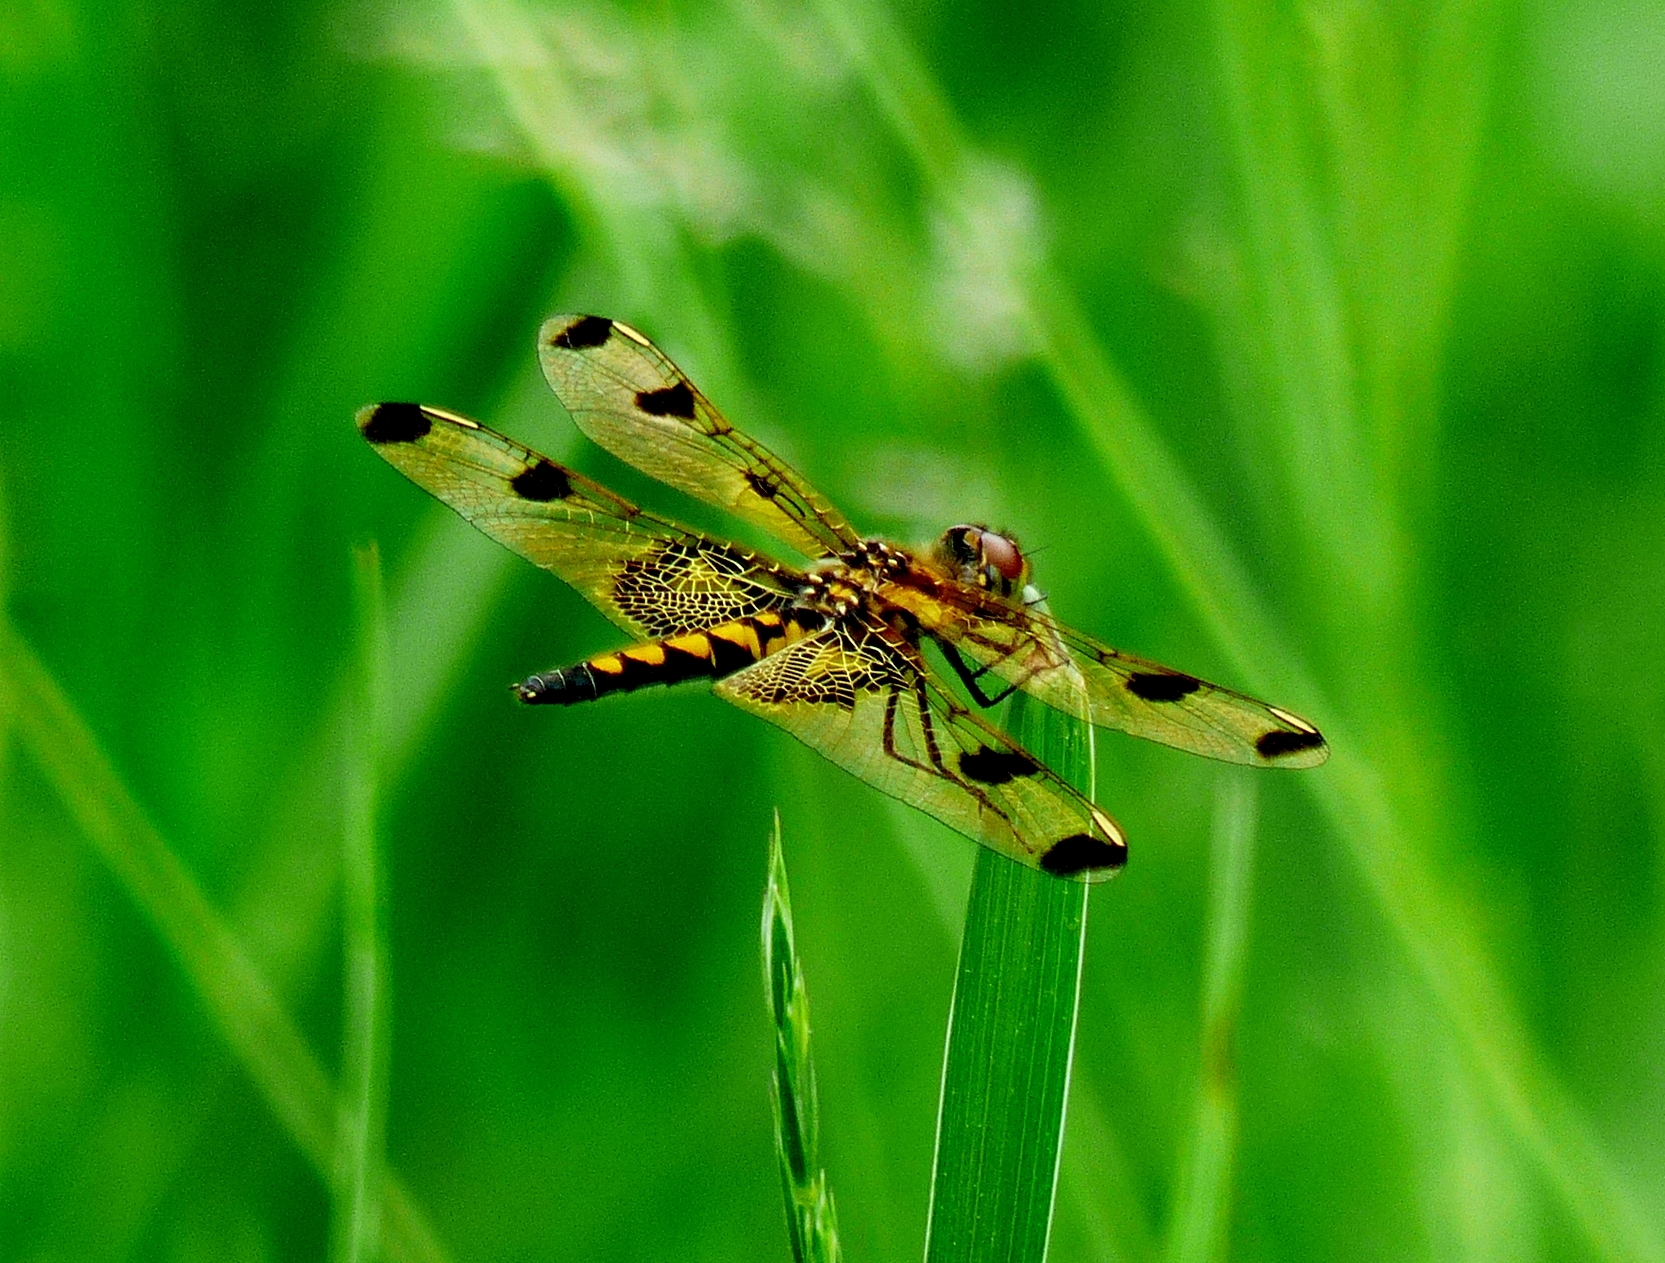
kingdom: Animalia
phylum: Arthropoda
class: Insecta
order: Odonata
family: Libellulidae
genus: Celithemis
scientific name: Celithemis elisa
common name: Calico pennant
